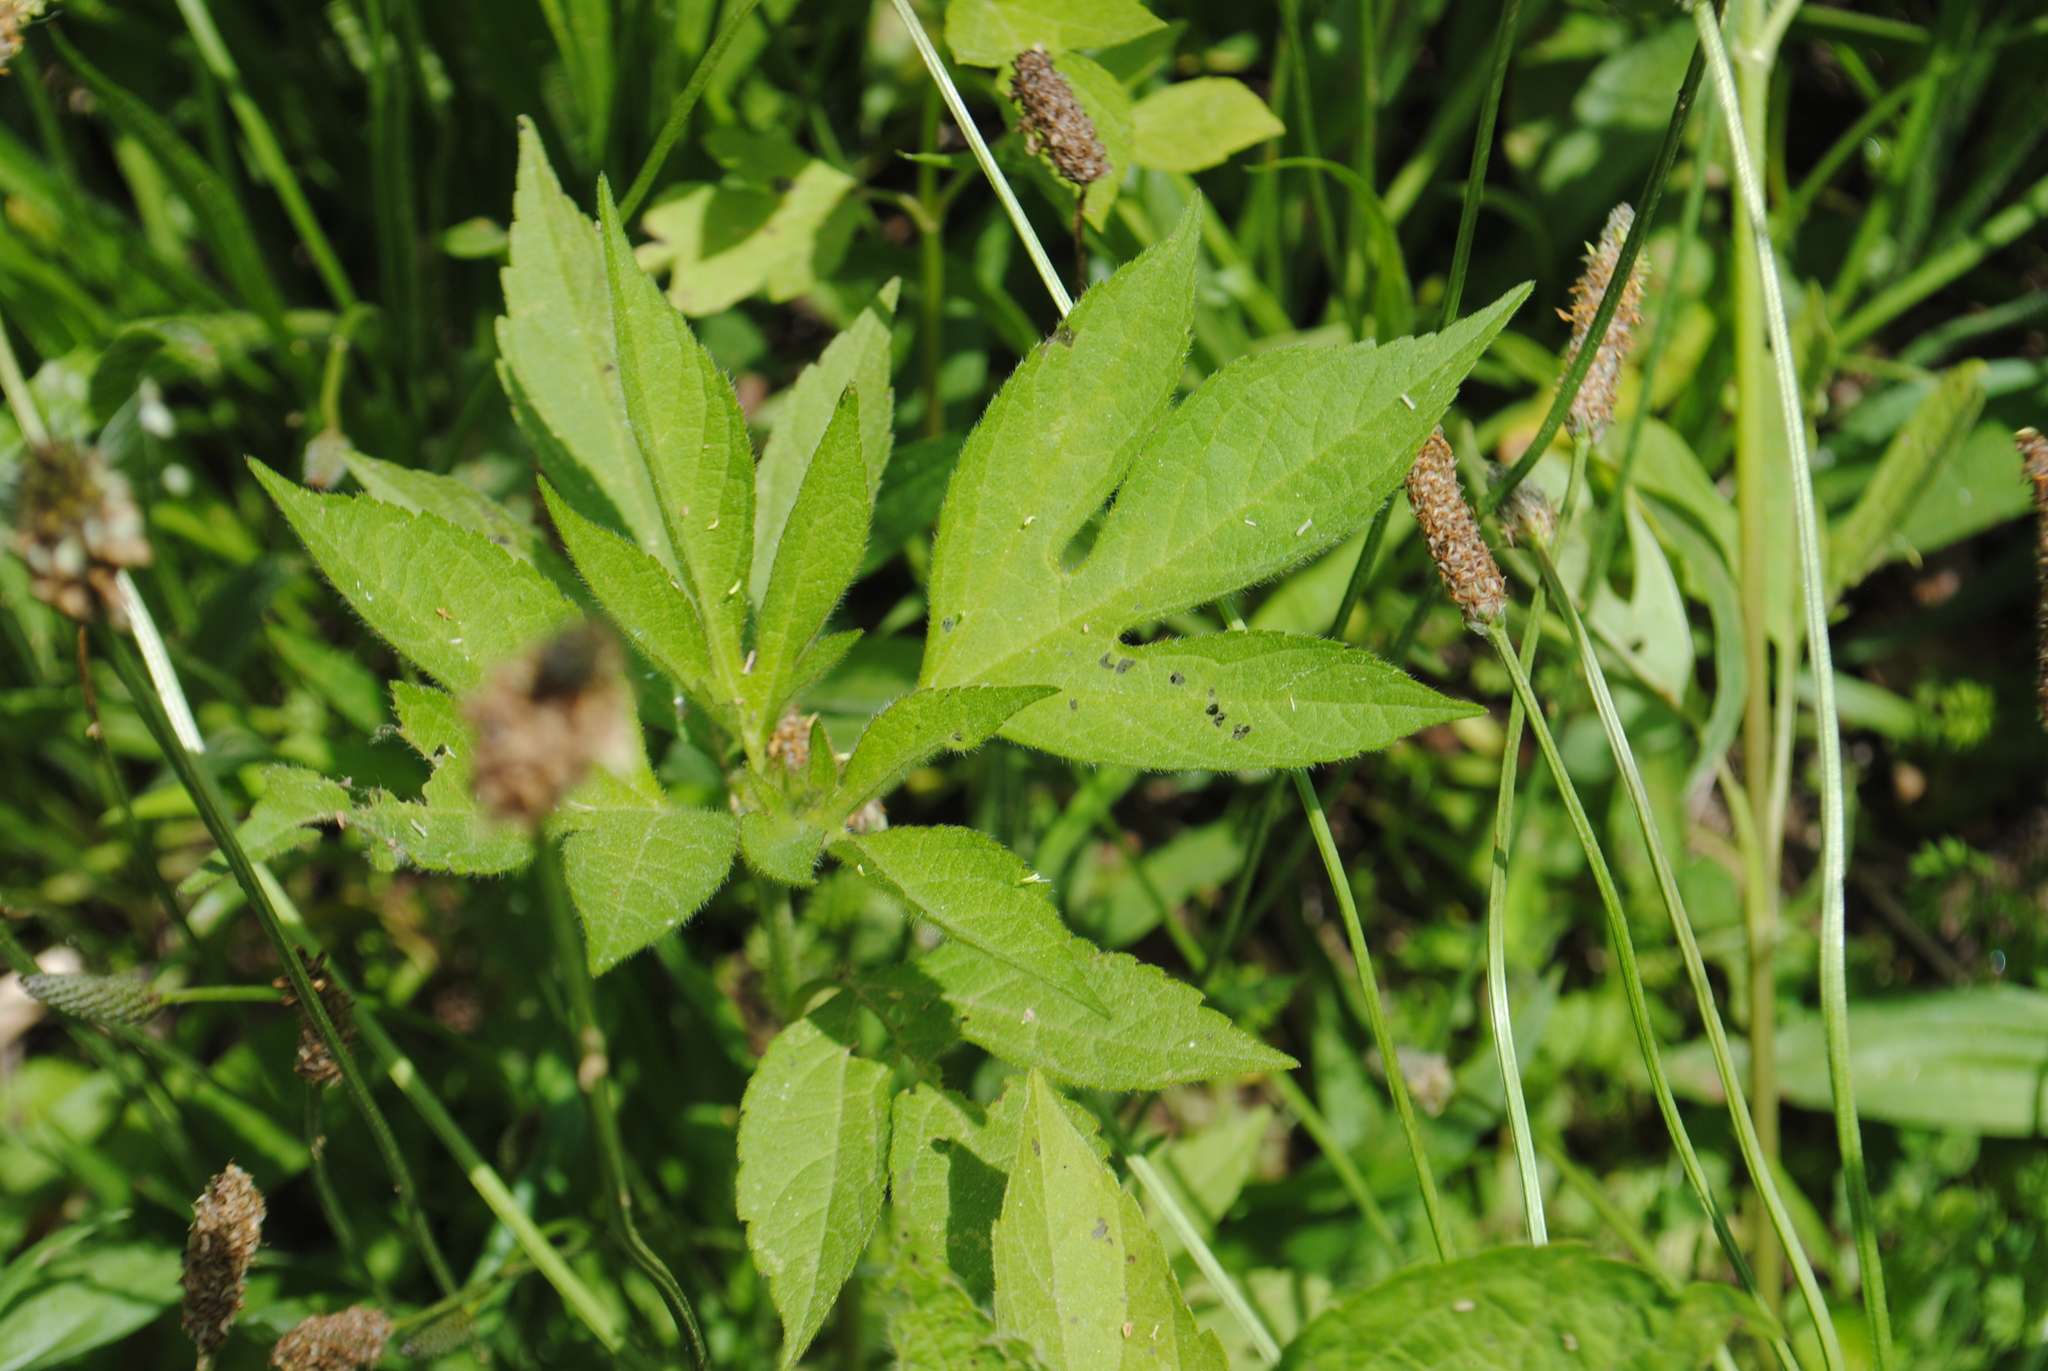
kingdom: Plantae
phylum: Tracheophyta
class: Magnoliopsida
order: Asterales
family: Asteraceae
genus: Ambrosia
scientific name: Ambrosia trifida
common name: Giant ragweed
